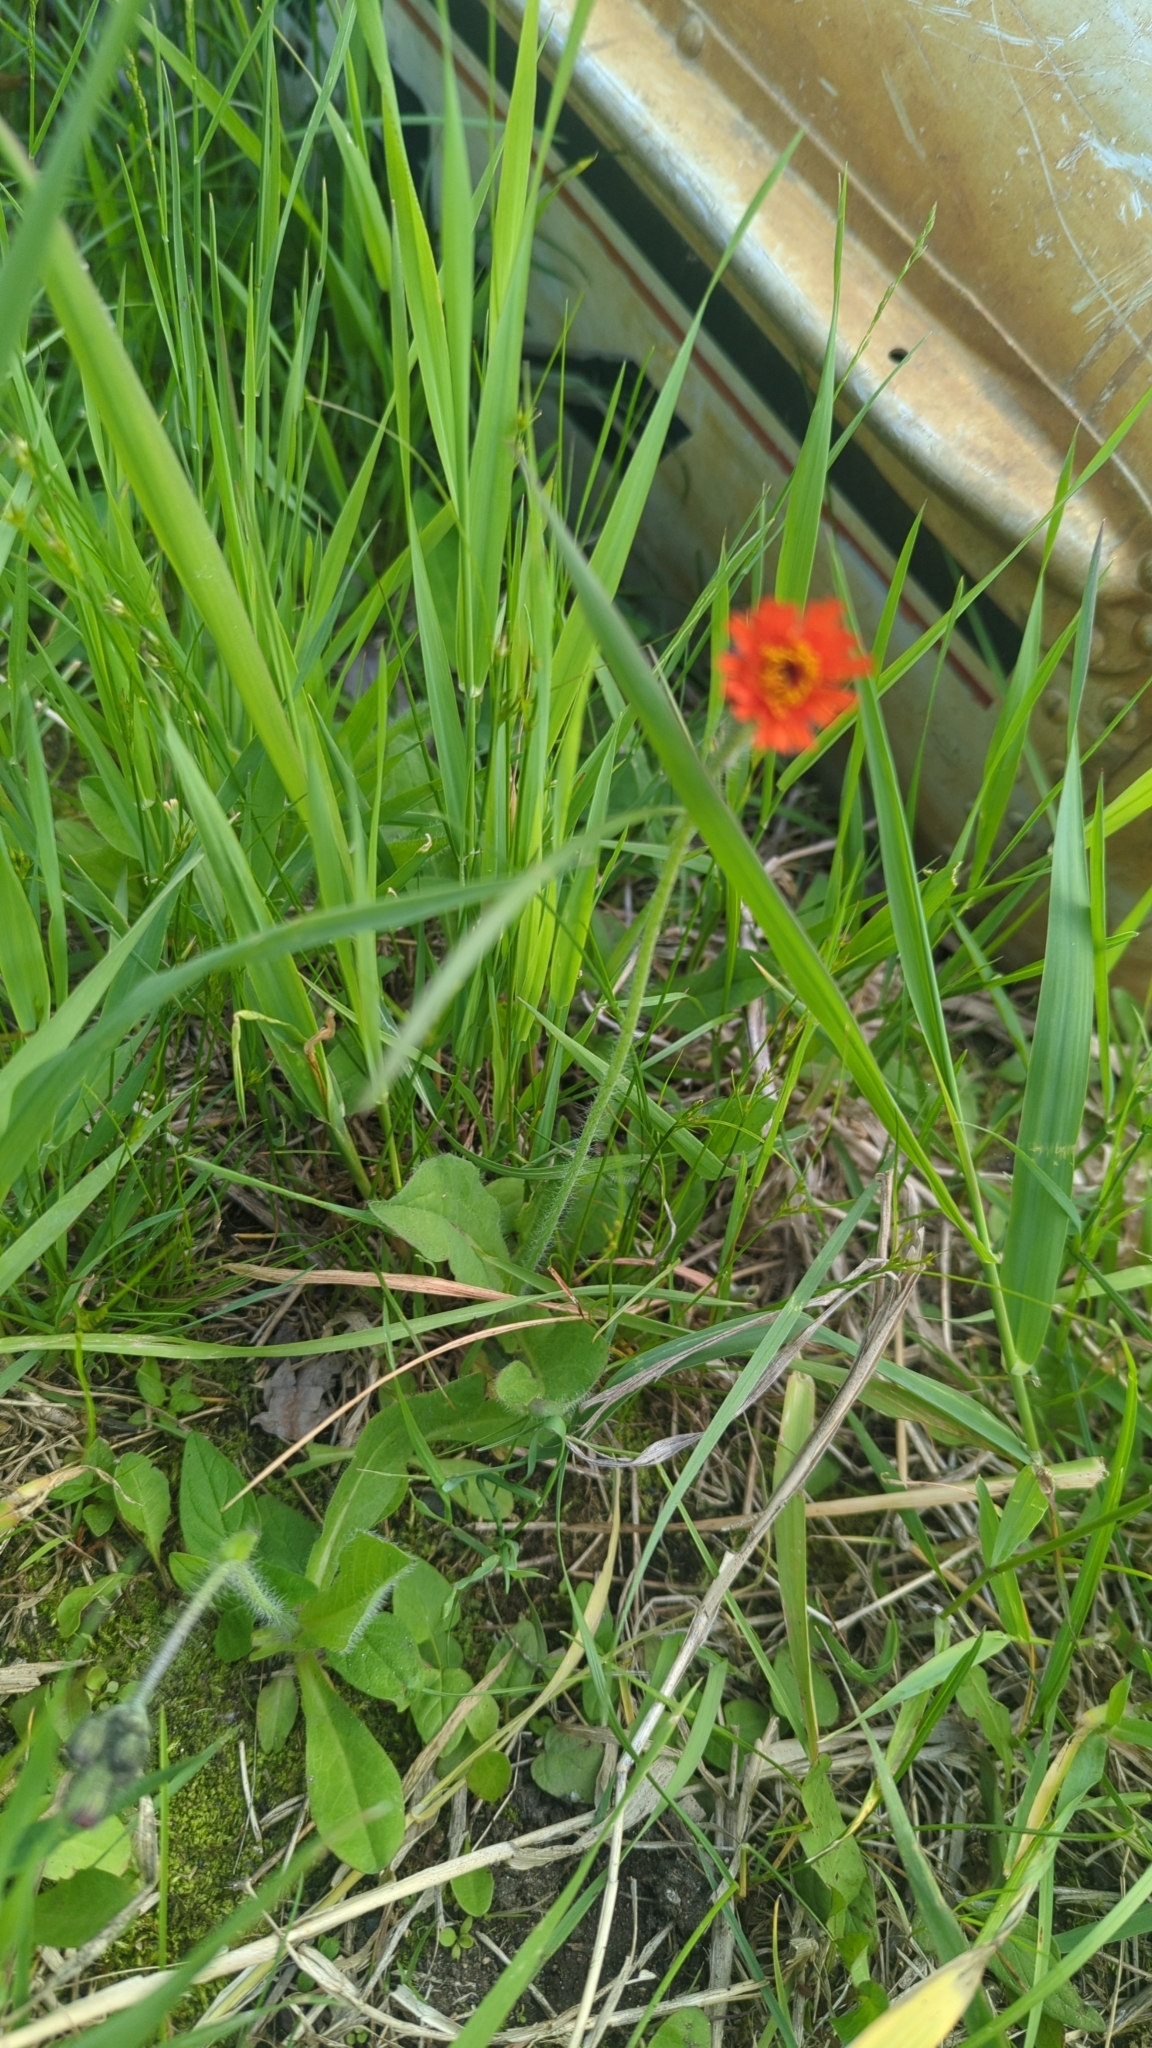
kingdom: Plantae
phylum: Tracheophyta
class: Magnoliopsida
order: Asterales
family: Asteraceae
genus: Pilosella
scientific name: Pilosella aurantiaca
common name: Fox-and-cubs
